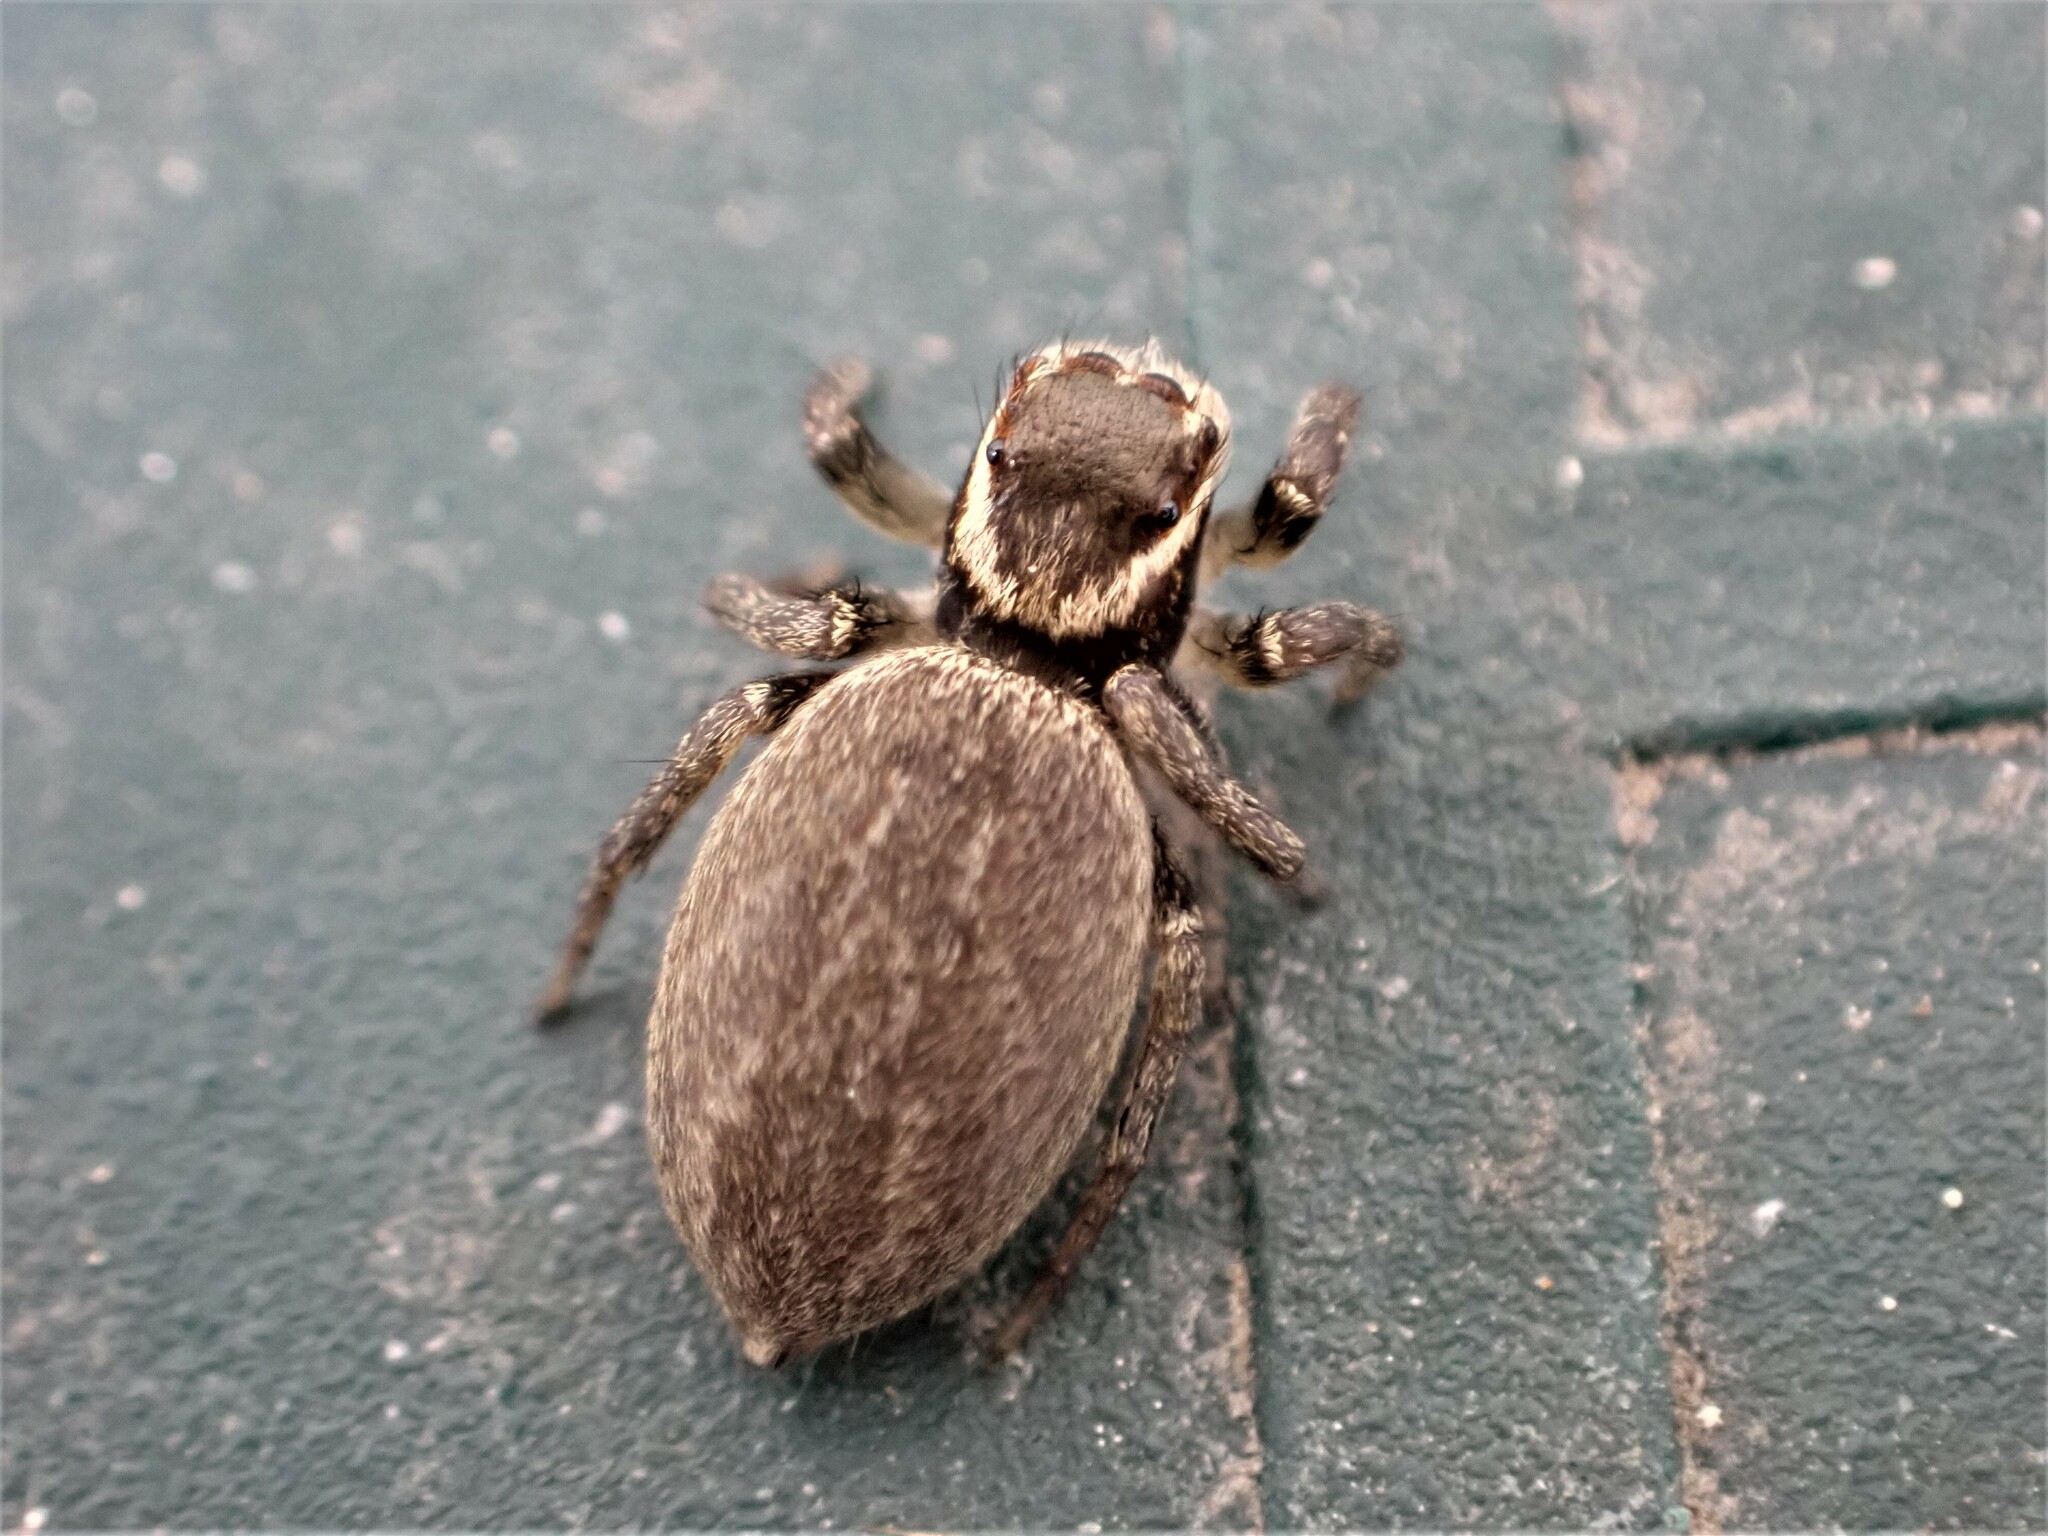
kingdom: Animalia
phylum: Arthropoda
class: Arachnida
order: Araneae
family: Salticidae
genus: Maratus
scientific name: Maratus griseus
